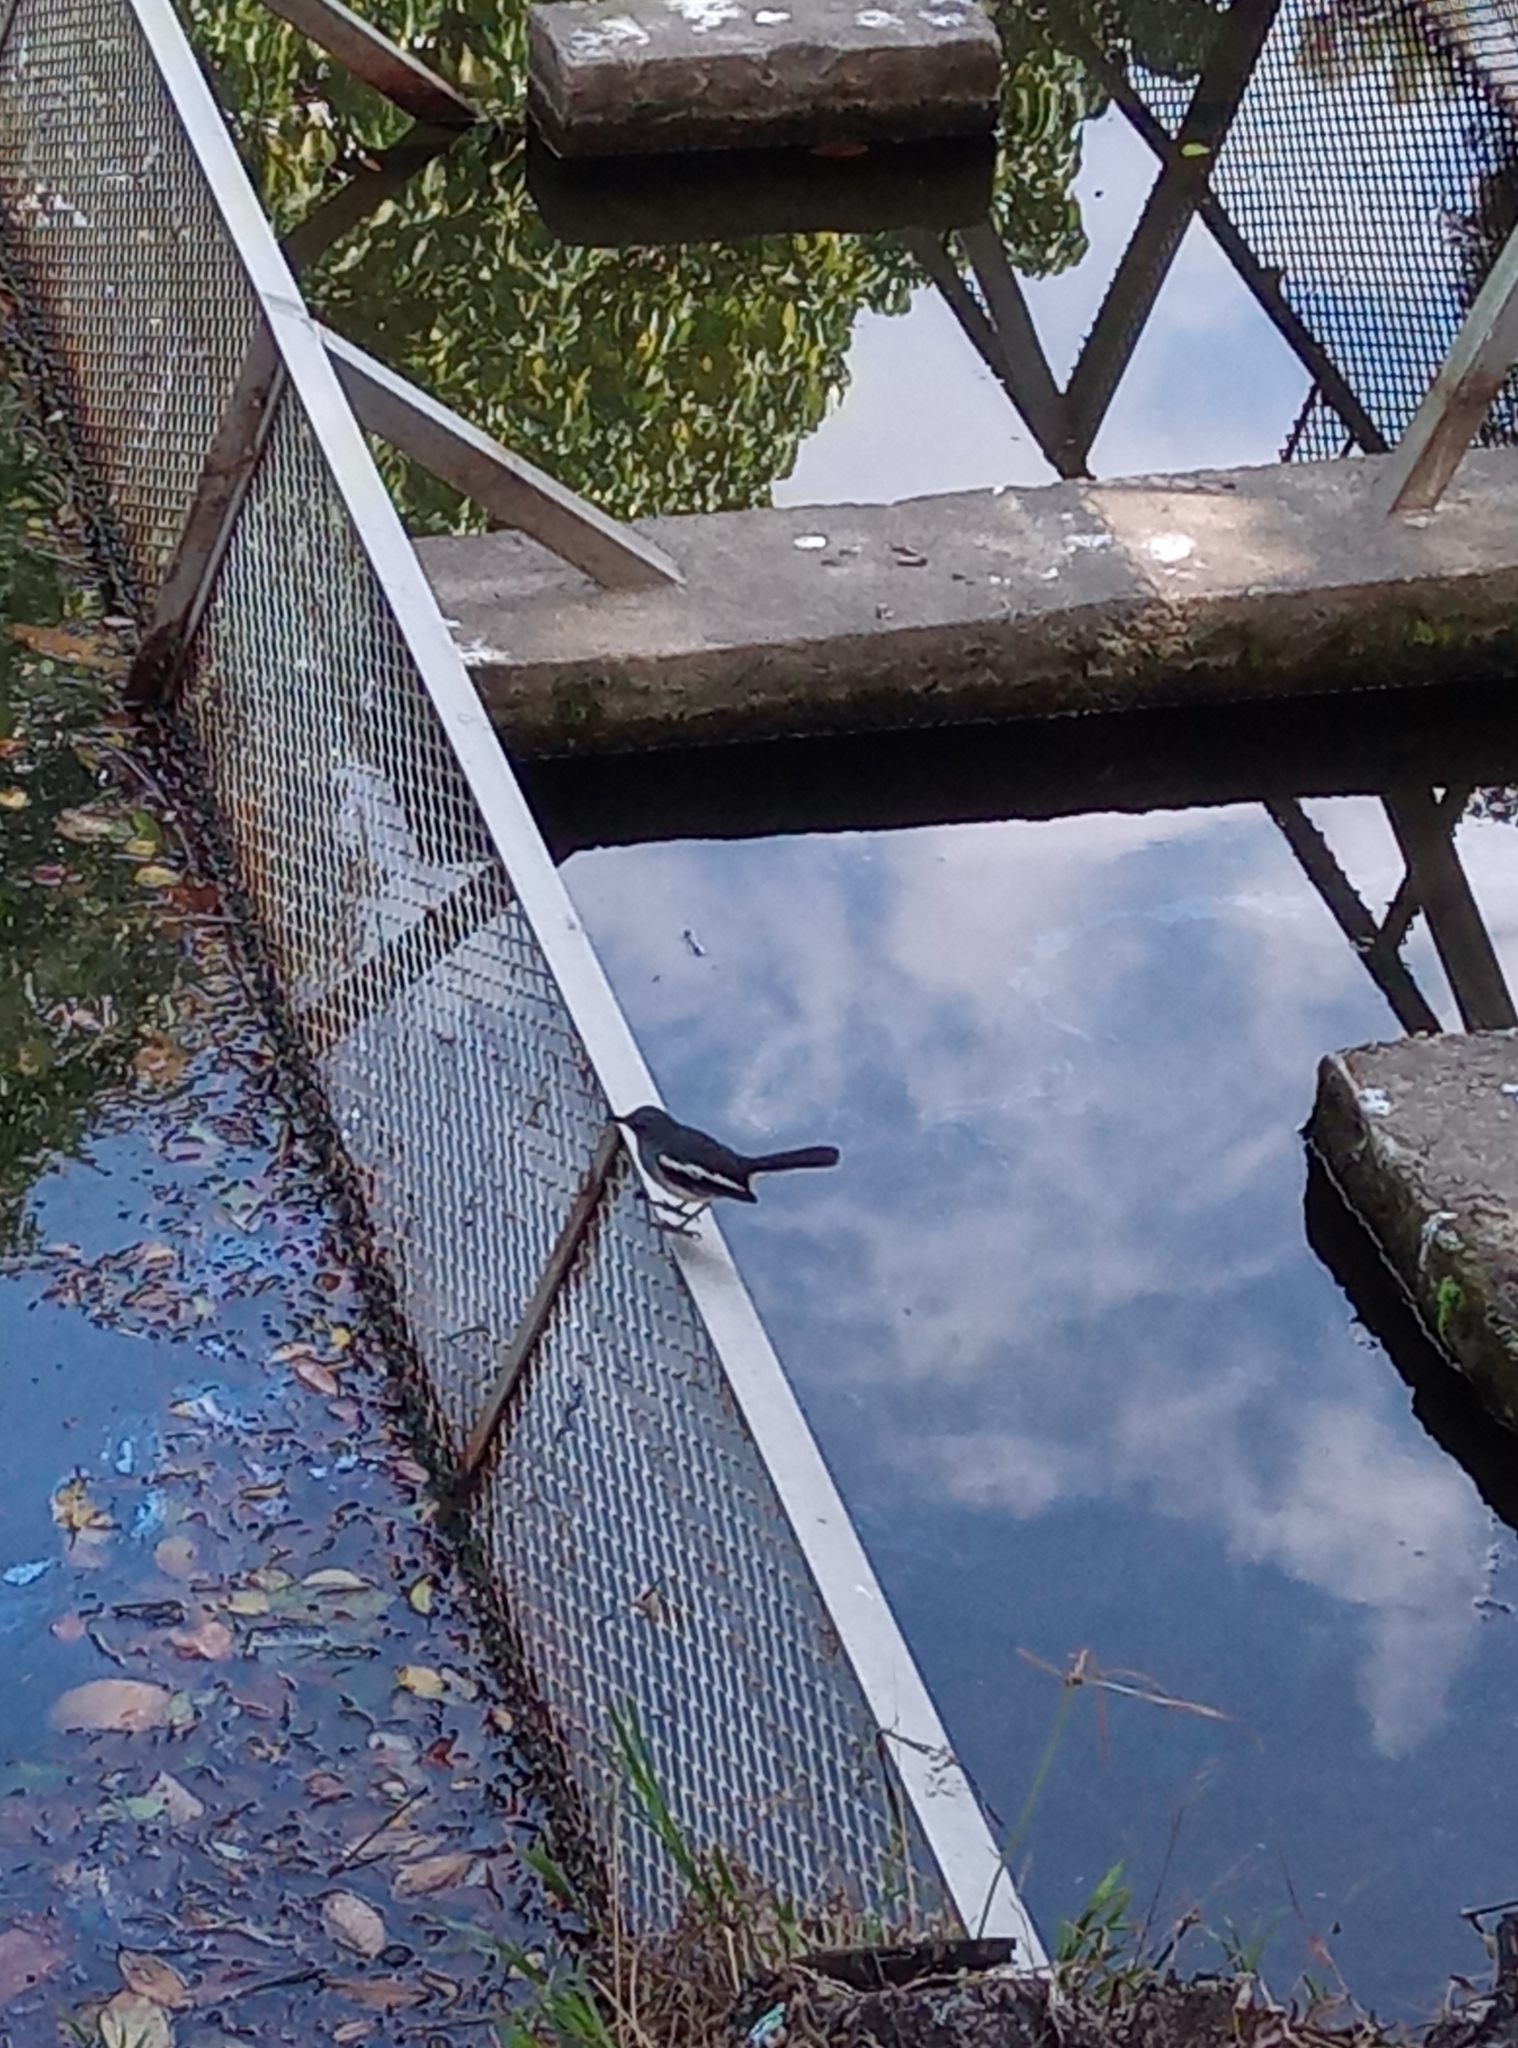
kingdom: Animalia
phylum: Chordata
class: Aves
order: Passeriformes
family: Muscicapidae
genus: Copsychus
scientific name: Copsychus saularis
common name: Oriental magpie-robin
